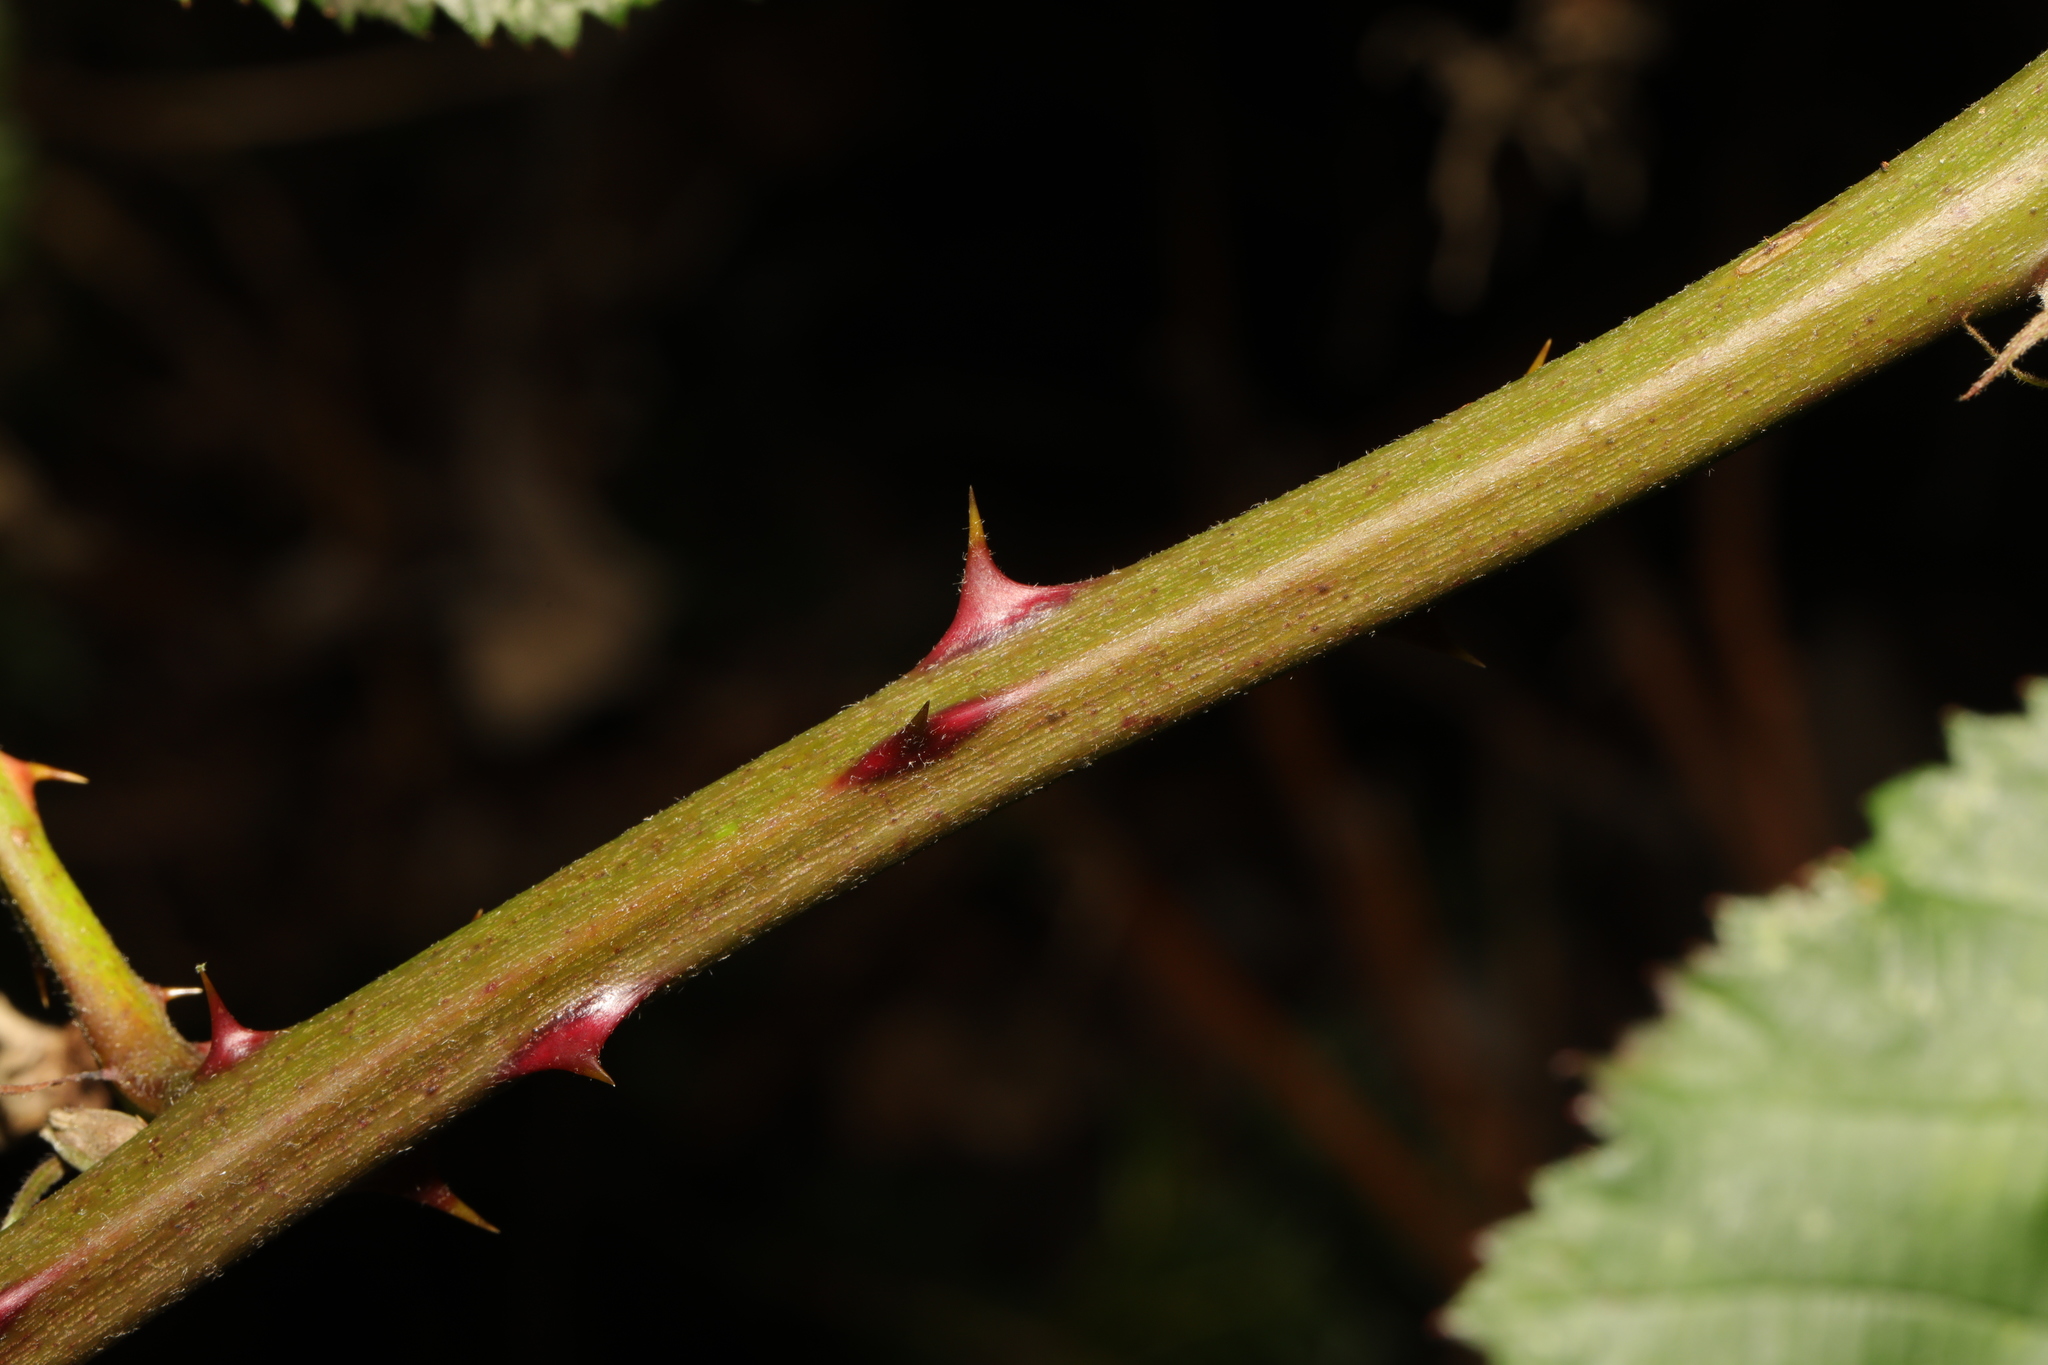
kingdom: Plantae
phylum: Tracheophyta
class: Magnoliopsida
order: Rosales
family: Rosaceae
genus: Rubus
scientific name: Rubus armeniacus
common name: Himalayan blackberry
